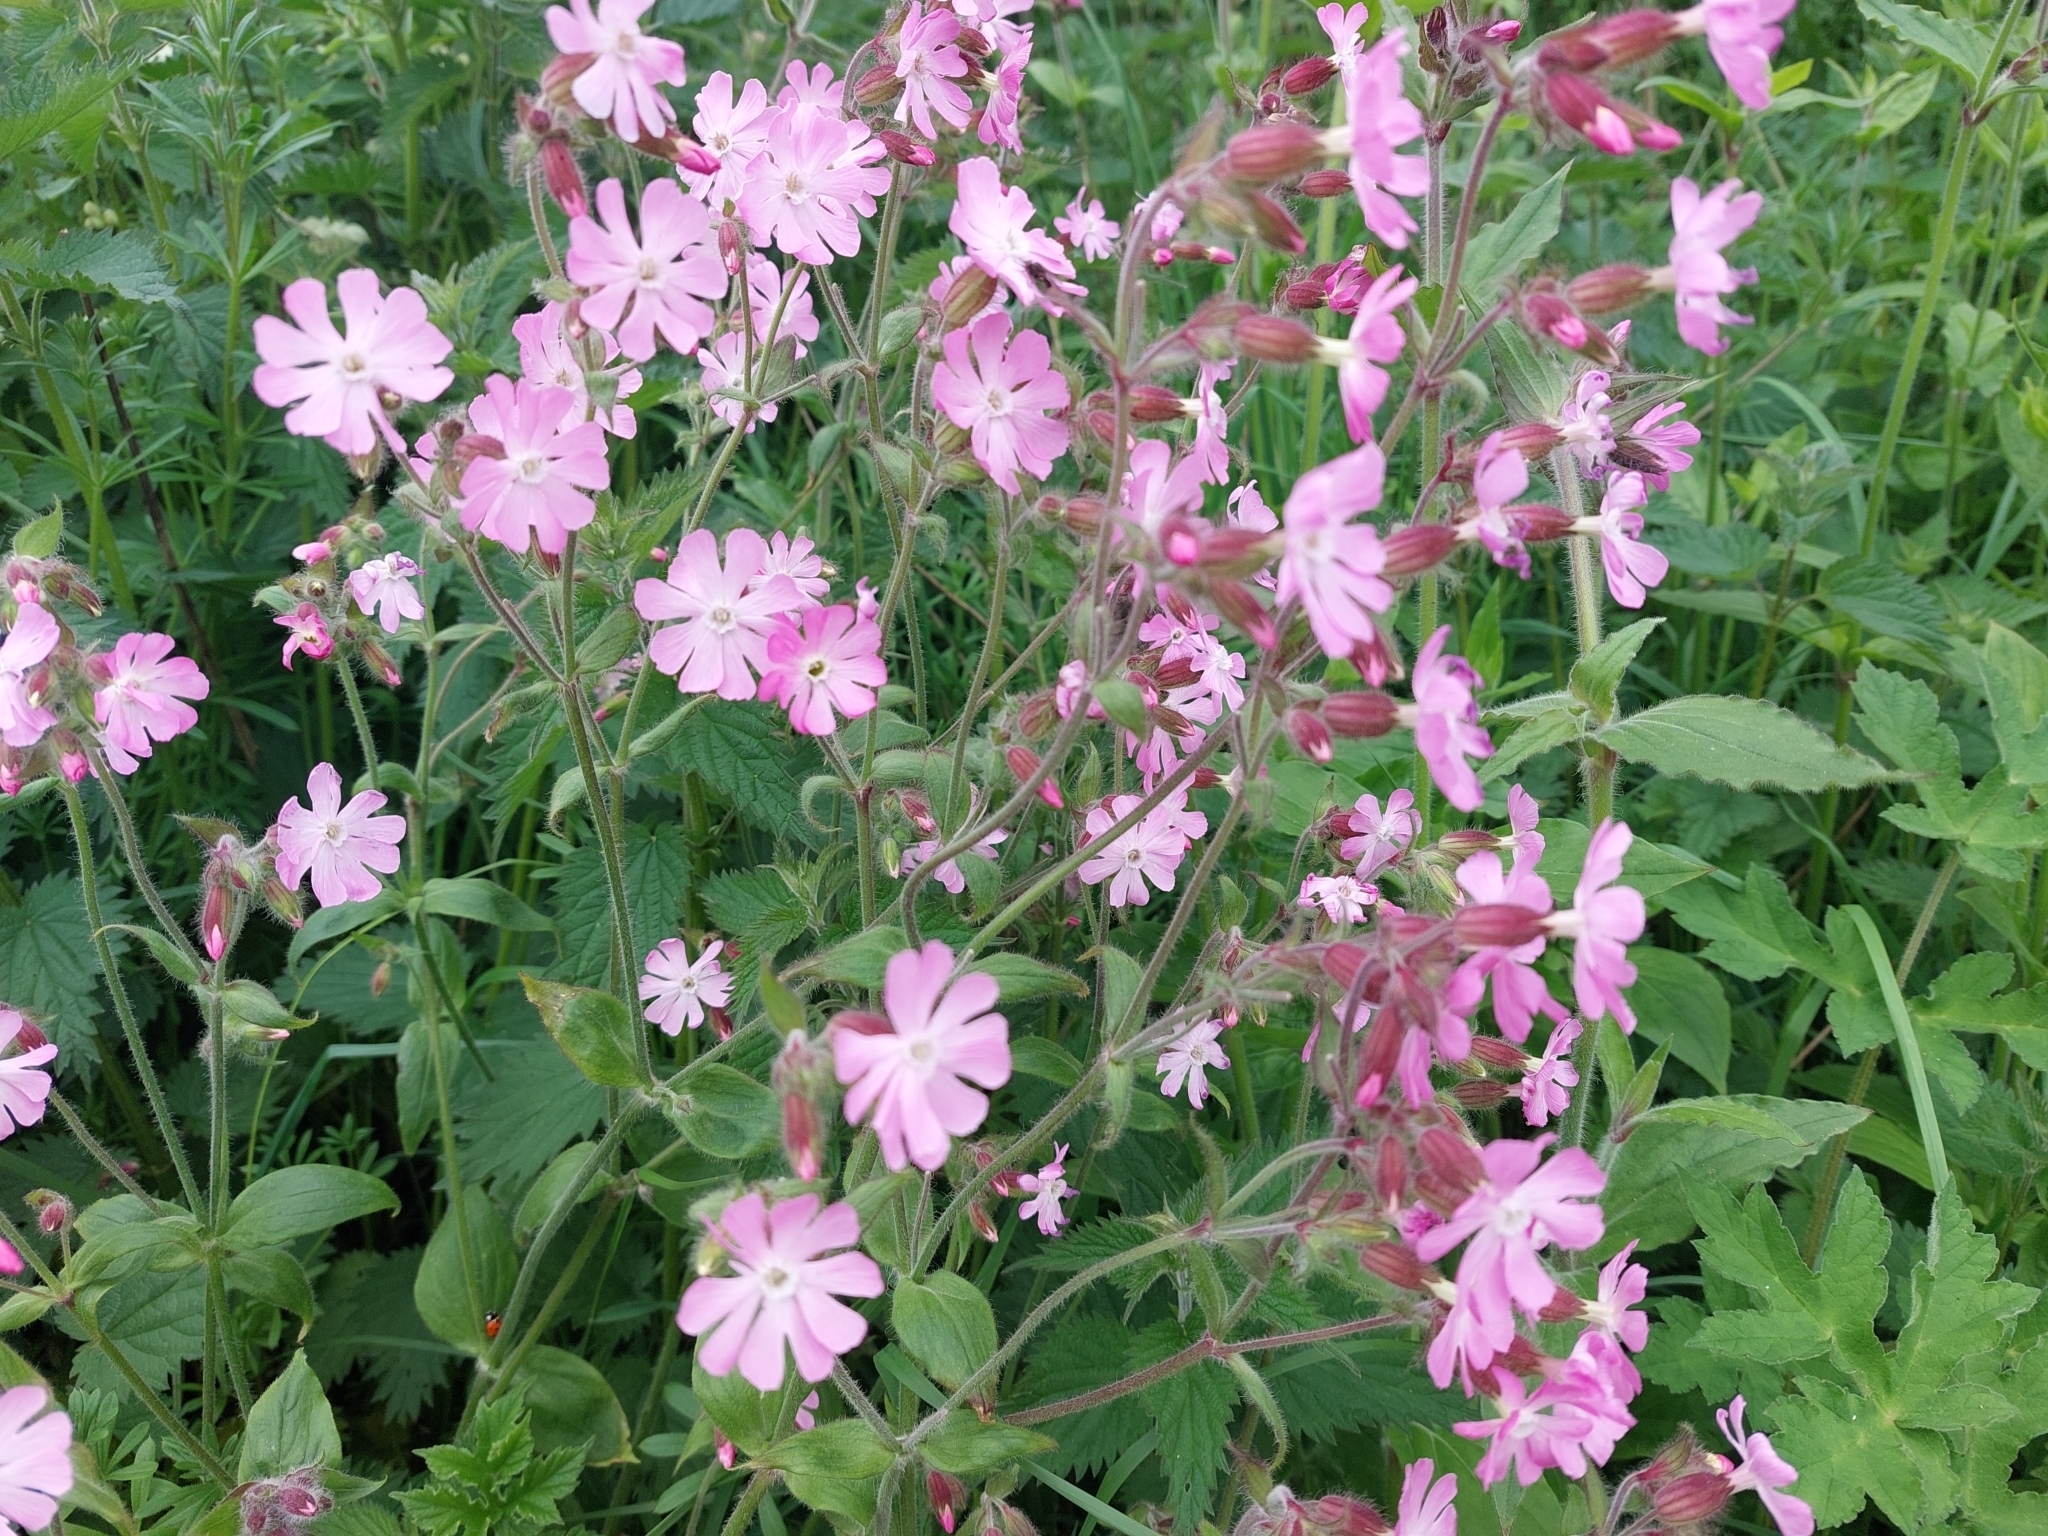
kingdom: Plantae
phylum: Tracheophyta
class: Magnoliopsida
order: Caryophyllales
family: Caryophyllaceae
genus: Silene
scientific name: Silene dioica
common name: Red campion
